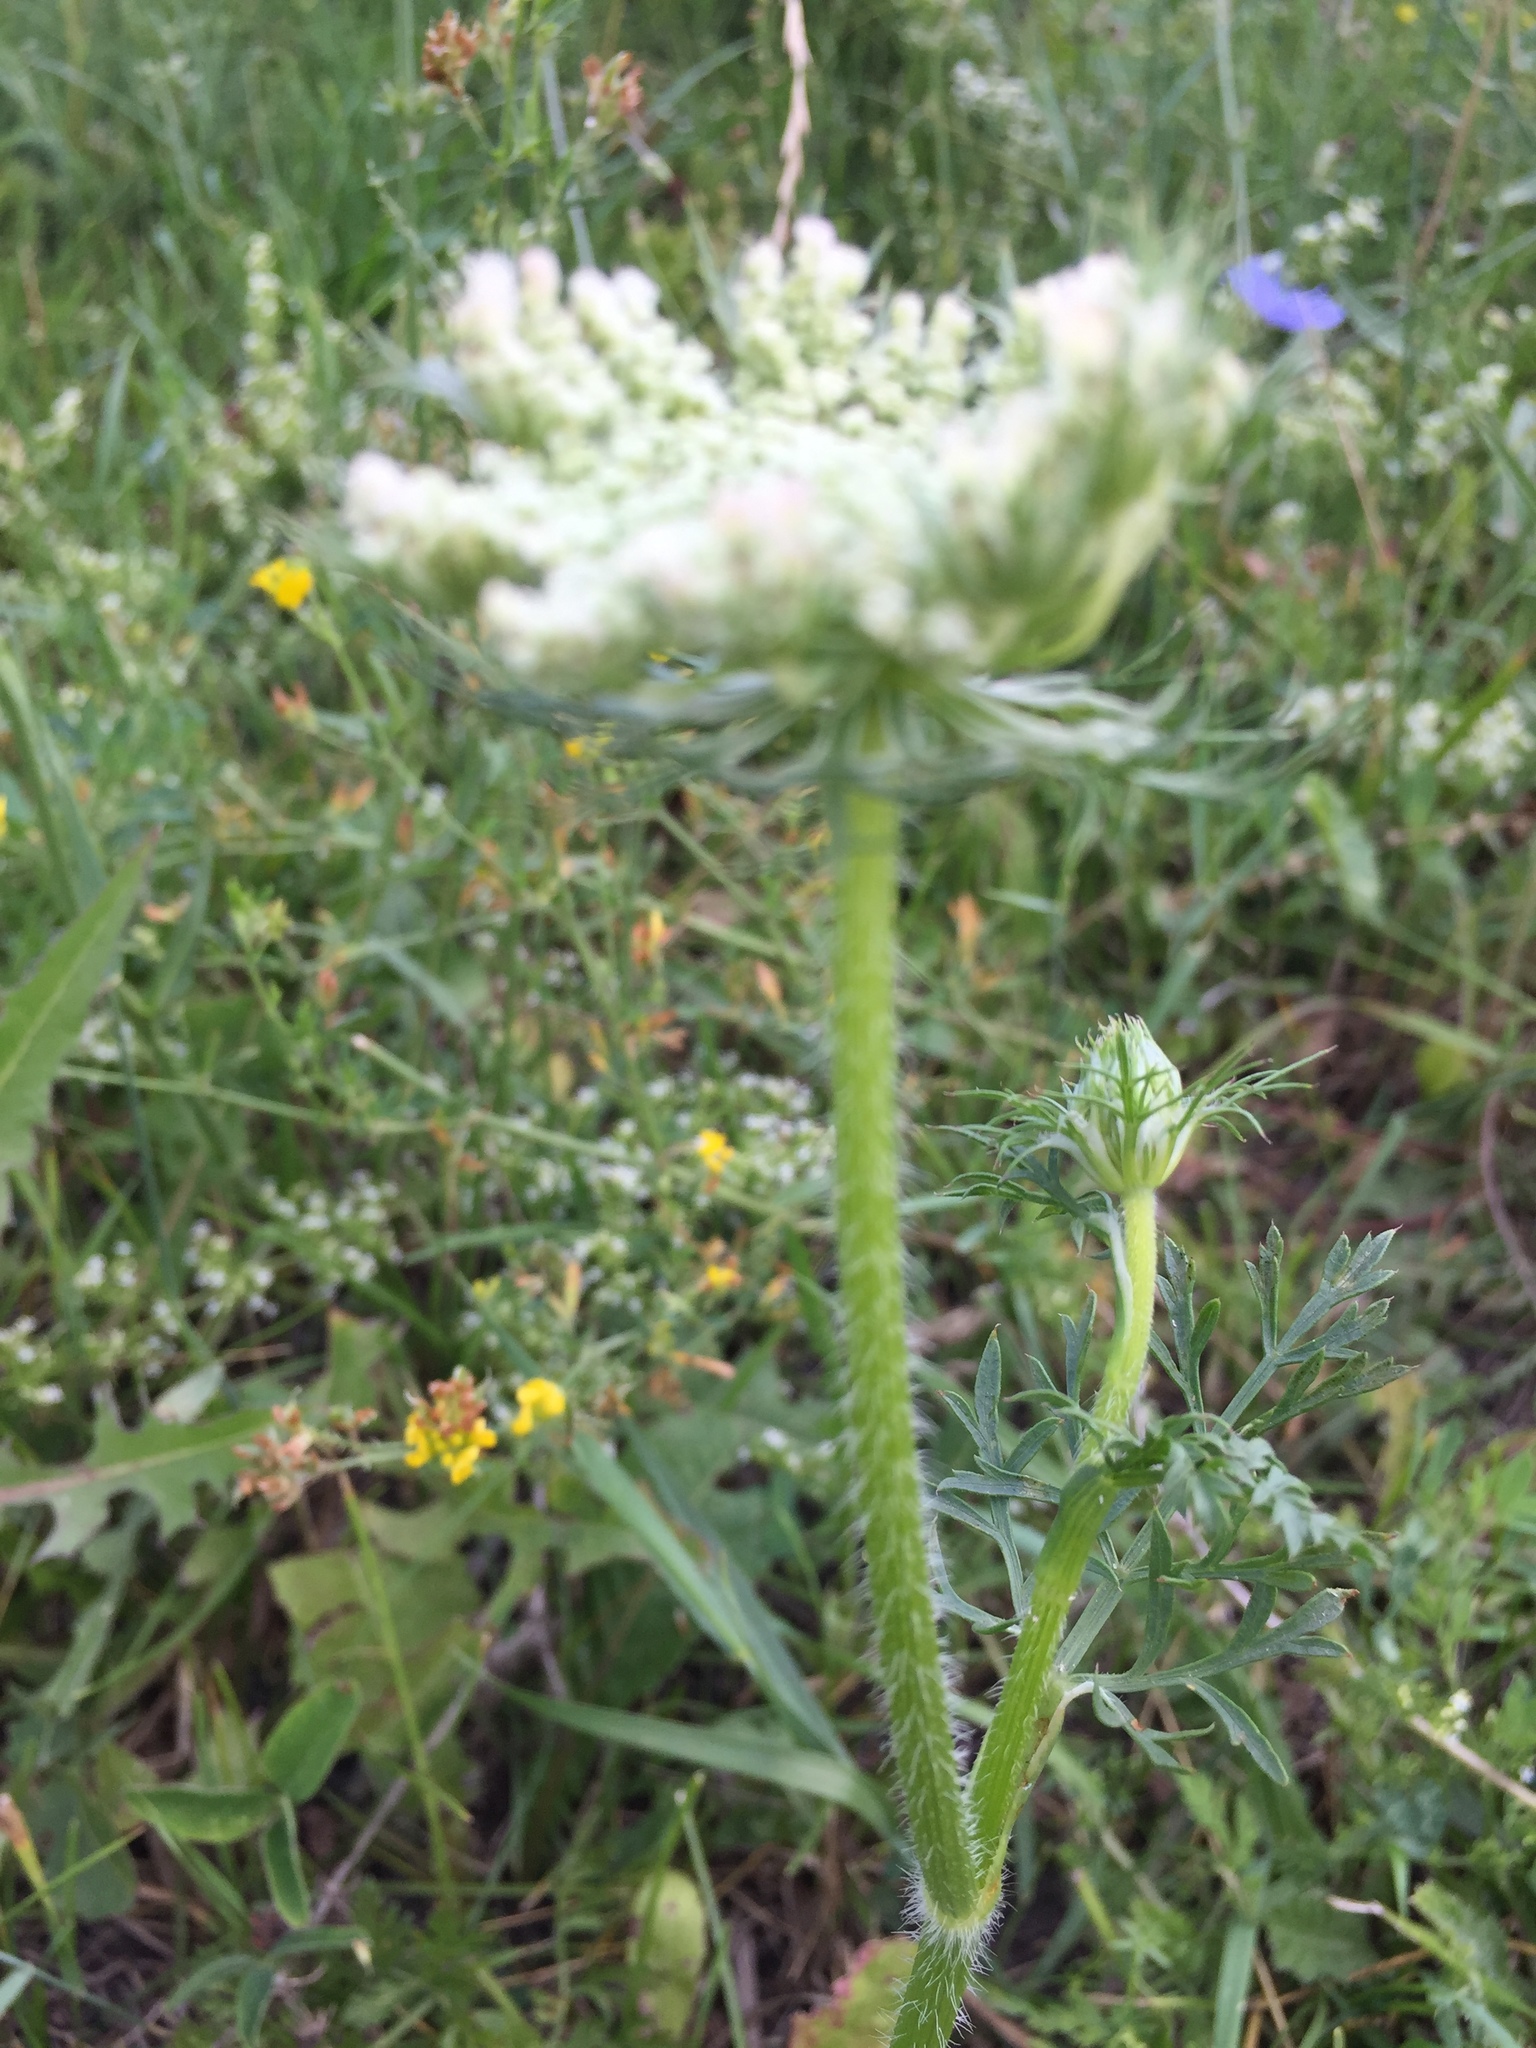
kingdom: Plantae
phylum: Tracheophyta
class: Magnoliopsida
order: Apiales
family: Apiaceae
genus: Daucus
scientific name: Daucus carota
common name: Wild carrot
